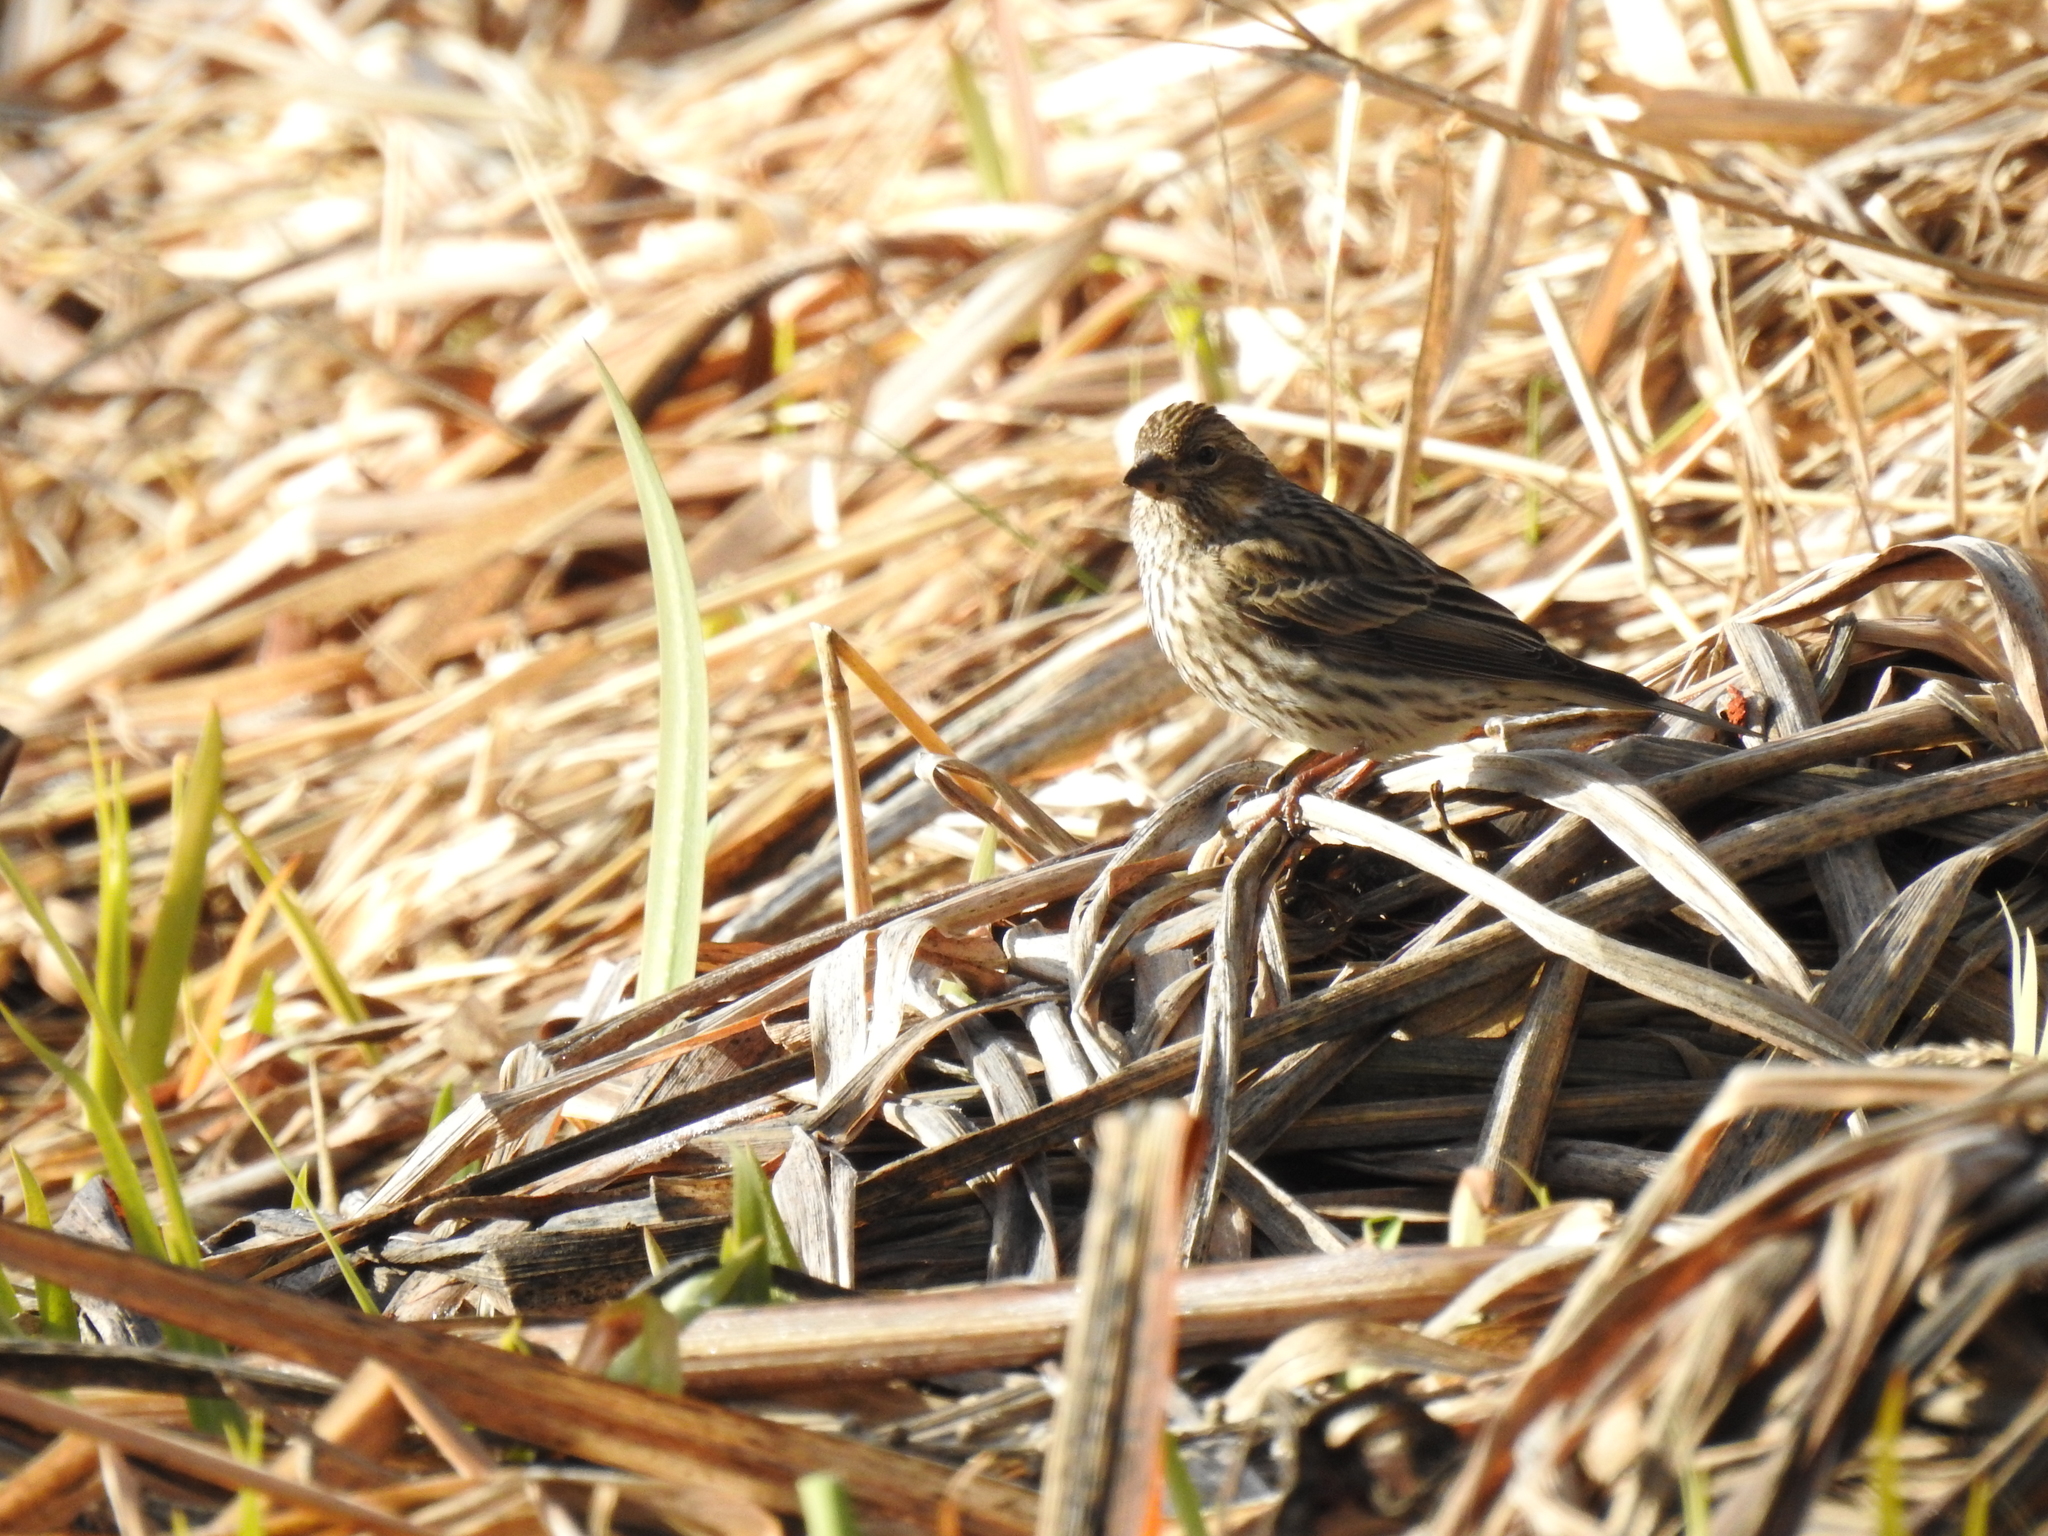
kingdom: Animalia
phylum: Chordata
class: Aves
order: Passeriformes
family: Fringillidae
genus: Haemorhous
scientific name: Haemorhous cassinii
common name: Cassin's finch
